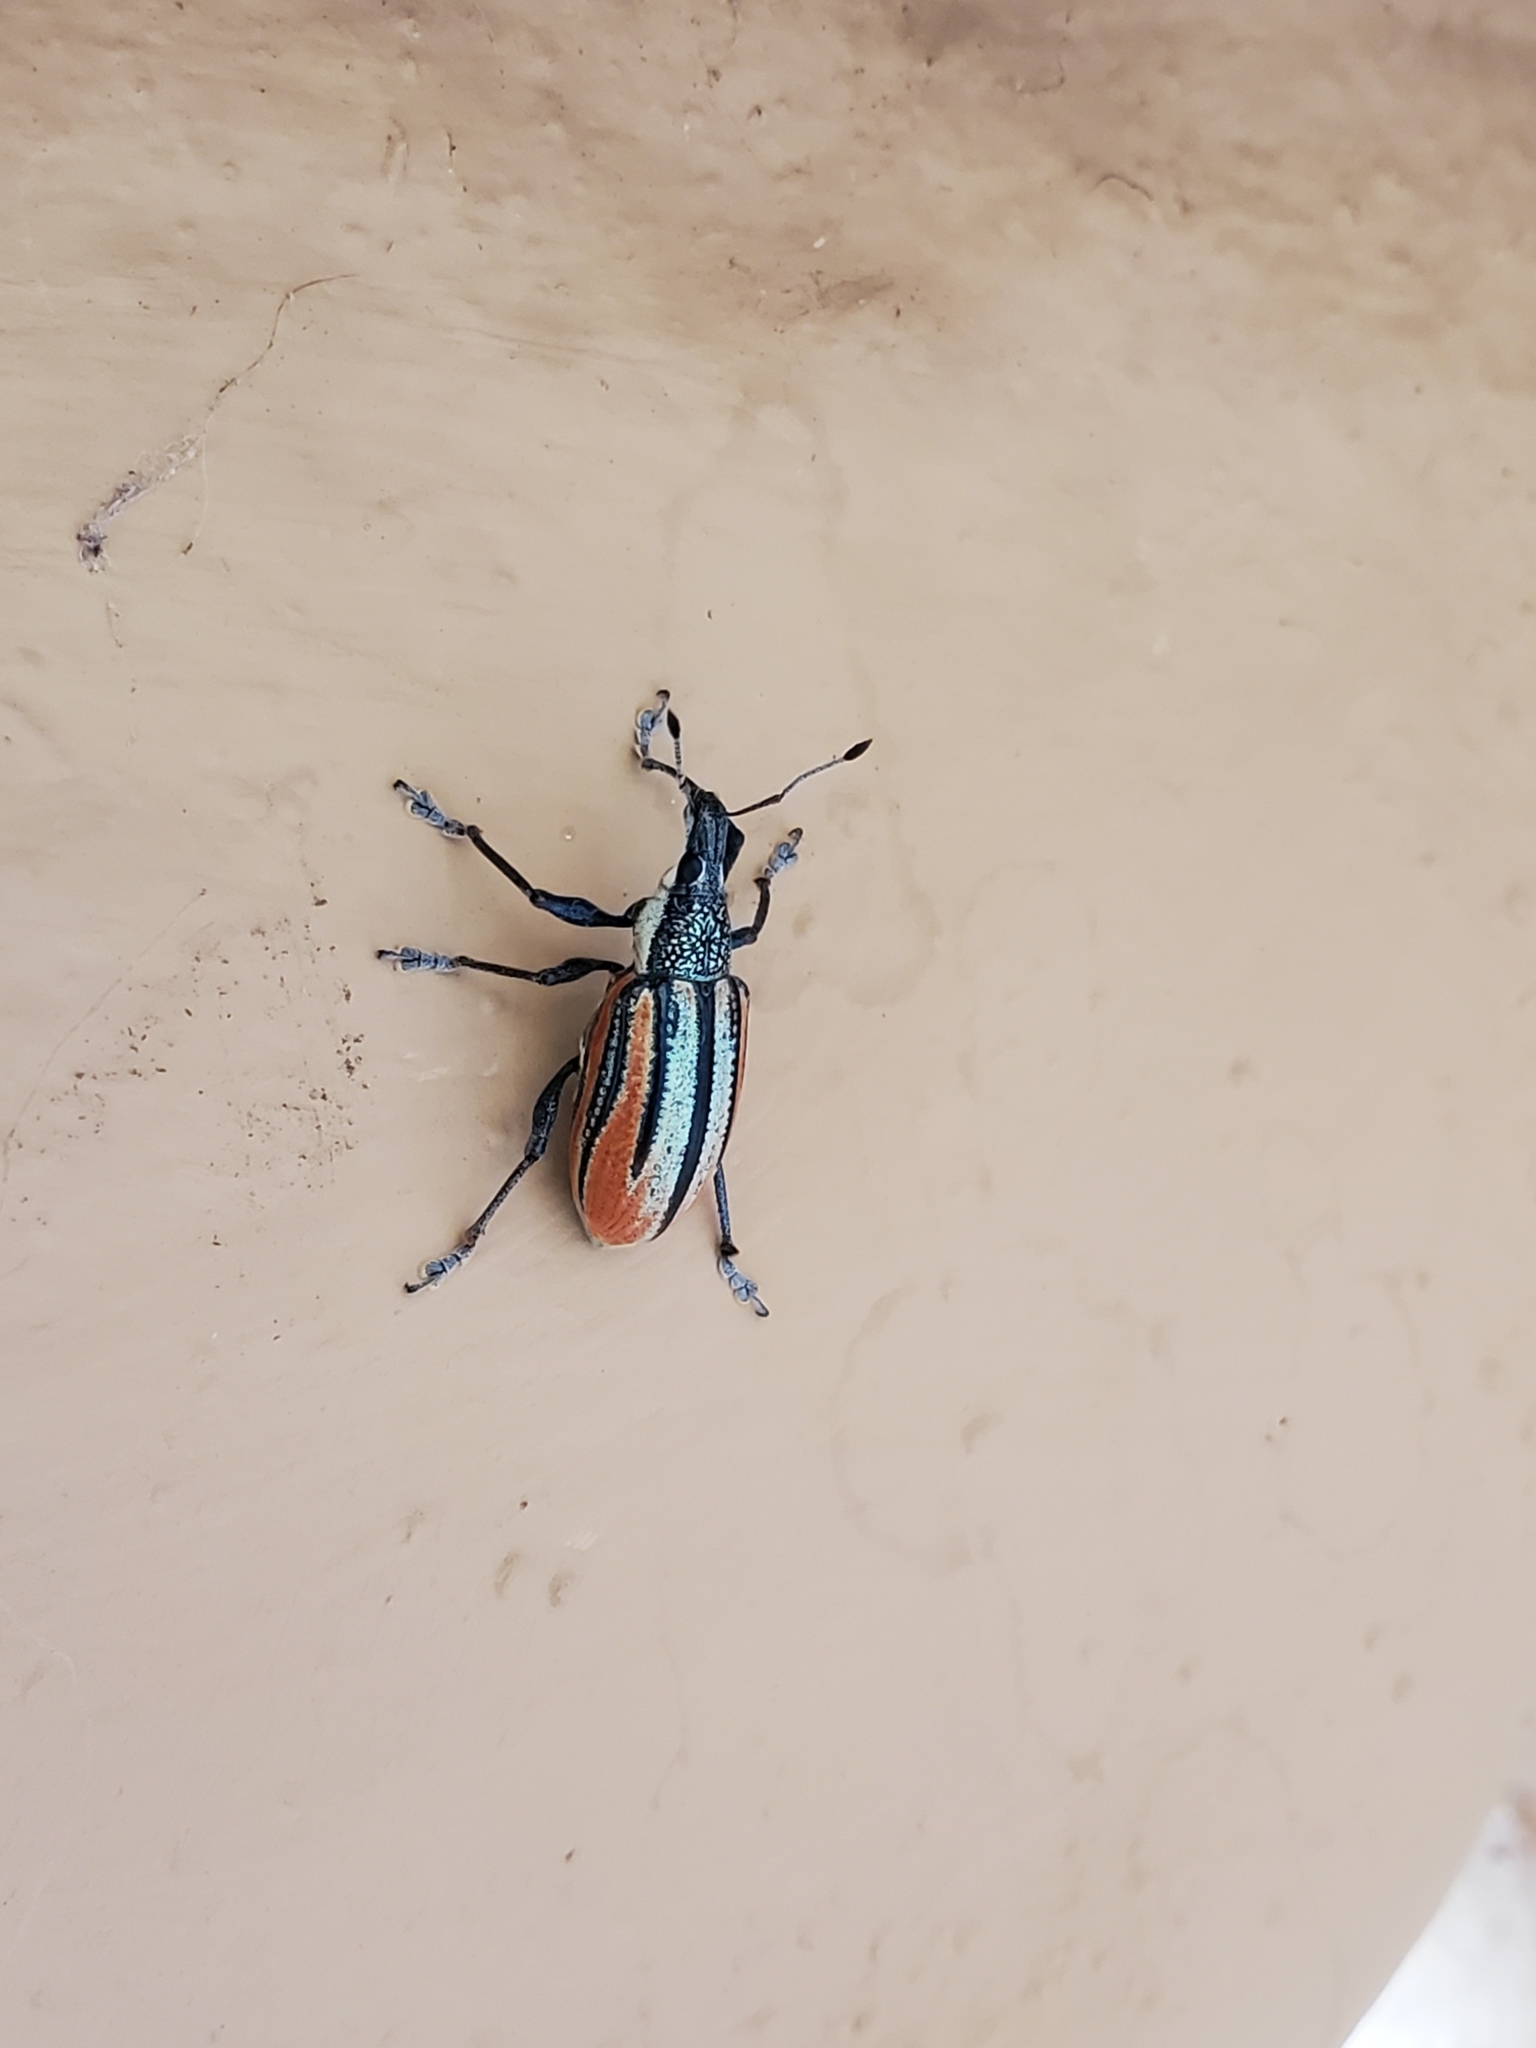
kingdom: Animalia
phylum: Arthropoda
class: Insecta
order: Coleoptera
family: Curculionidae
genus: Diaprepes
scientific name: Diaprepes abbreviatus
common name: Root weevil
